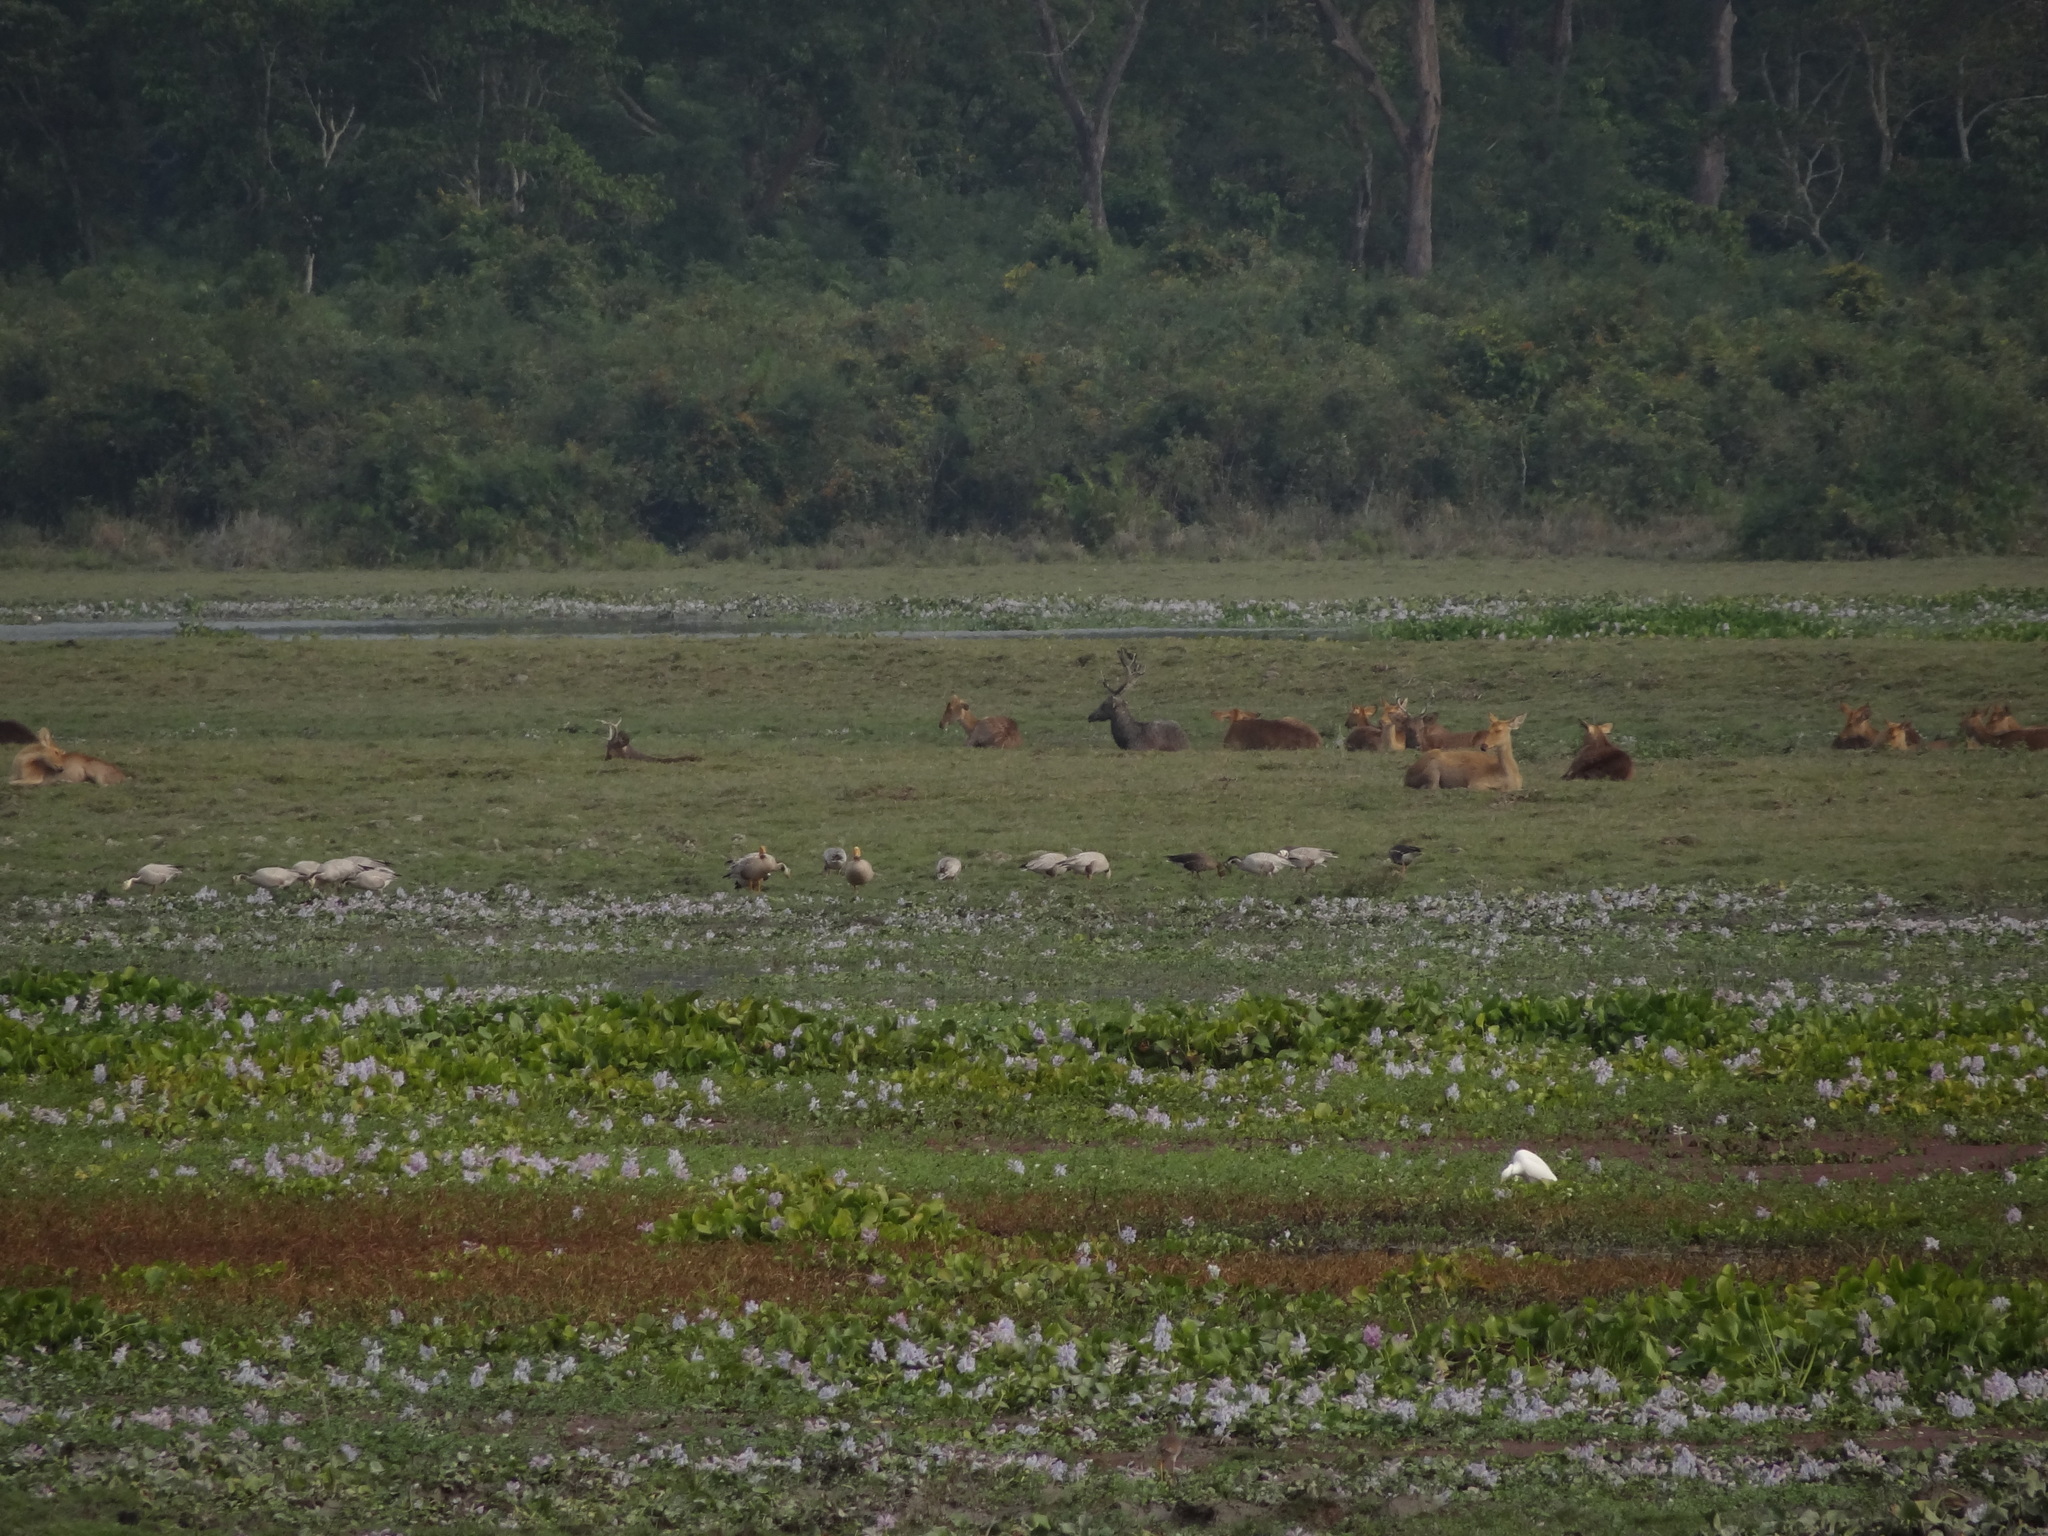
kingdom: Animalia
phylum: Chordata
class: Mammalia
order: Artiodactyla
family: Cervidae
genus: Rucervus
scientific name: Rucervus duvaucelii
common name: Barasingha
